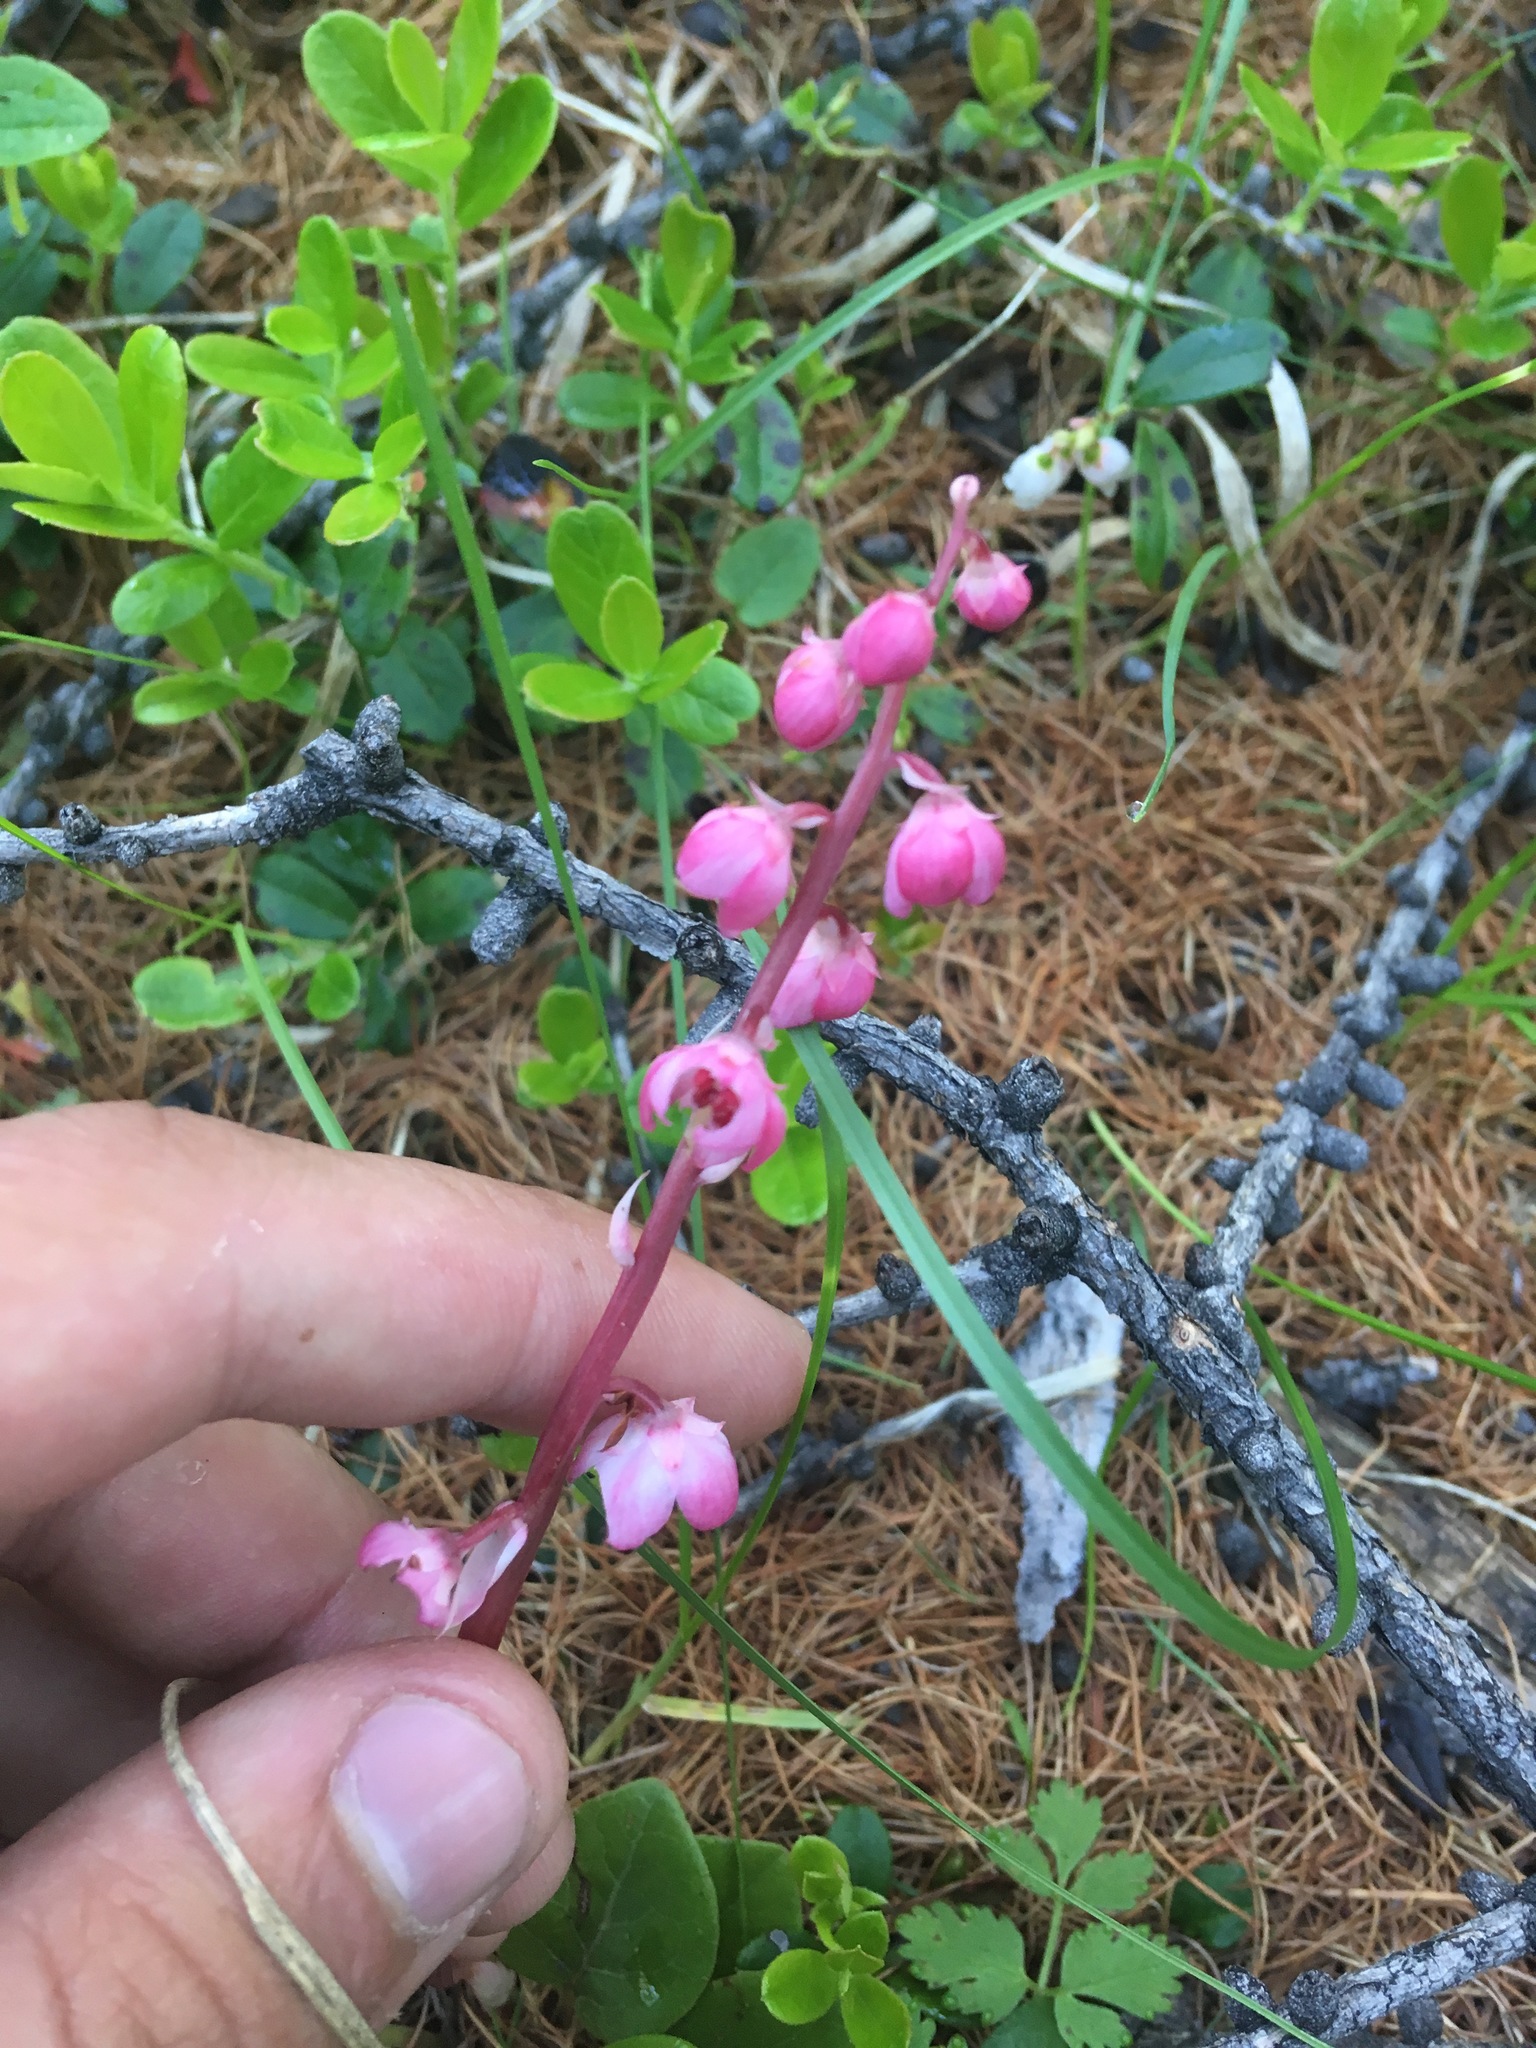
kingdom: Plantae
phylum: Tracheophyta
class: Magnoliopsida
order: Ericales
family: Ericaceae
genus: Pyrola
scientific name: Pyrola asarifolia
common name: Bog wintergreen
